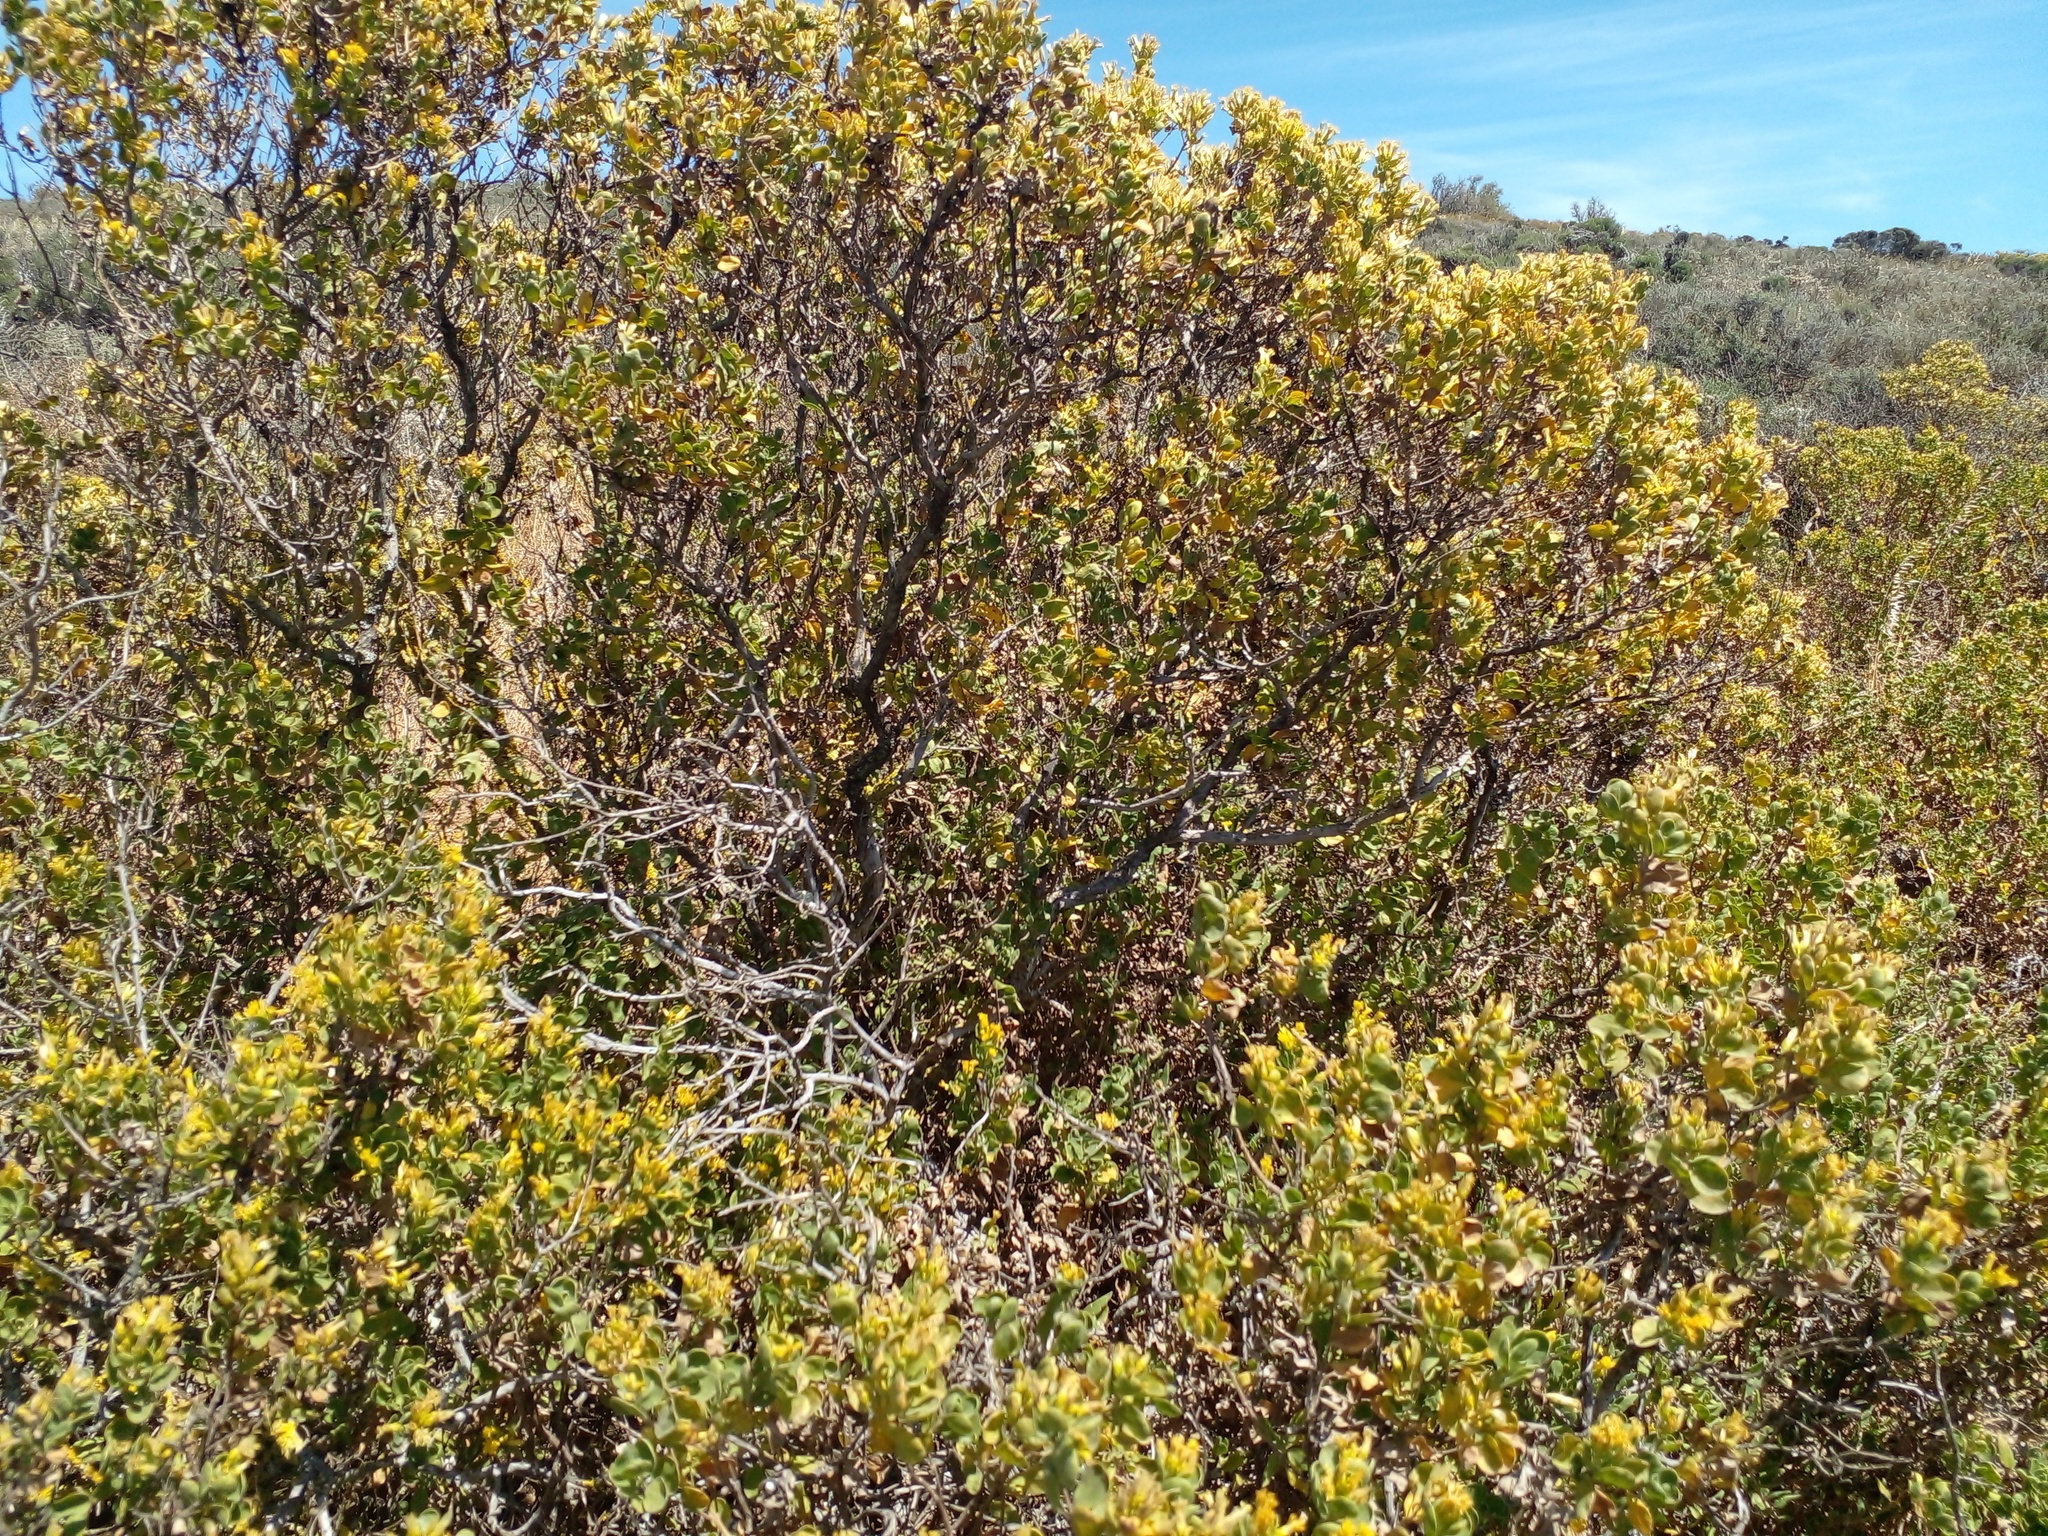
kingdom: Plantae
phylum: Tracheophyta
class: Magnoliopsida
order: Asterales
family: Asteraceae
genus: Pteronia
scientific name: Pteronia divaricata
